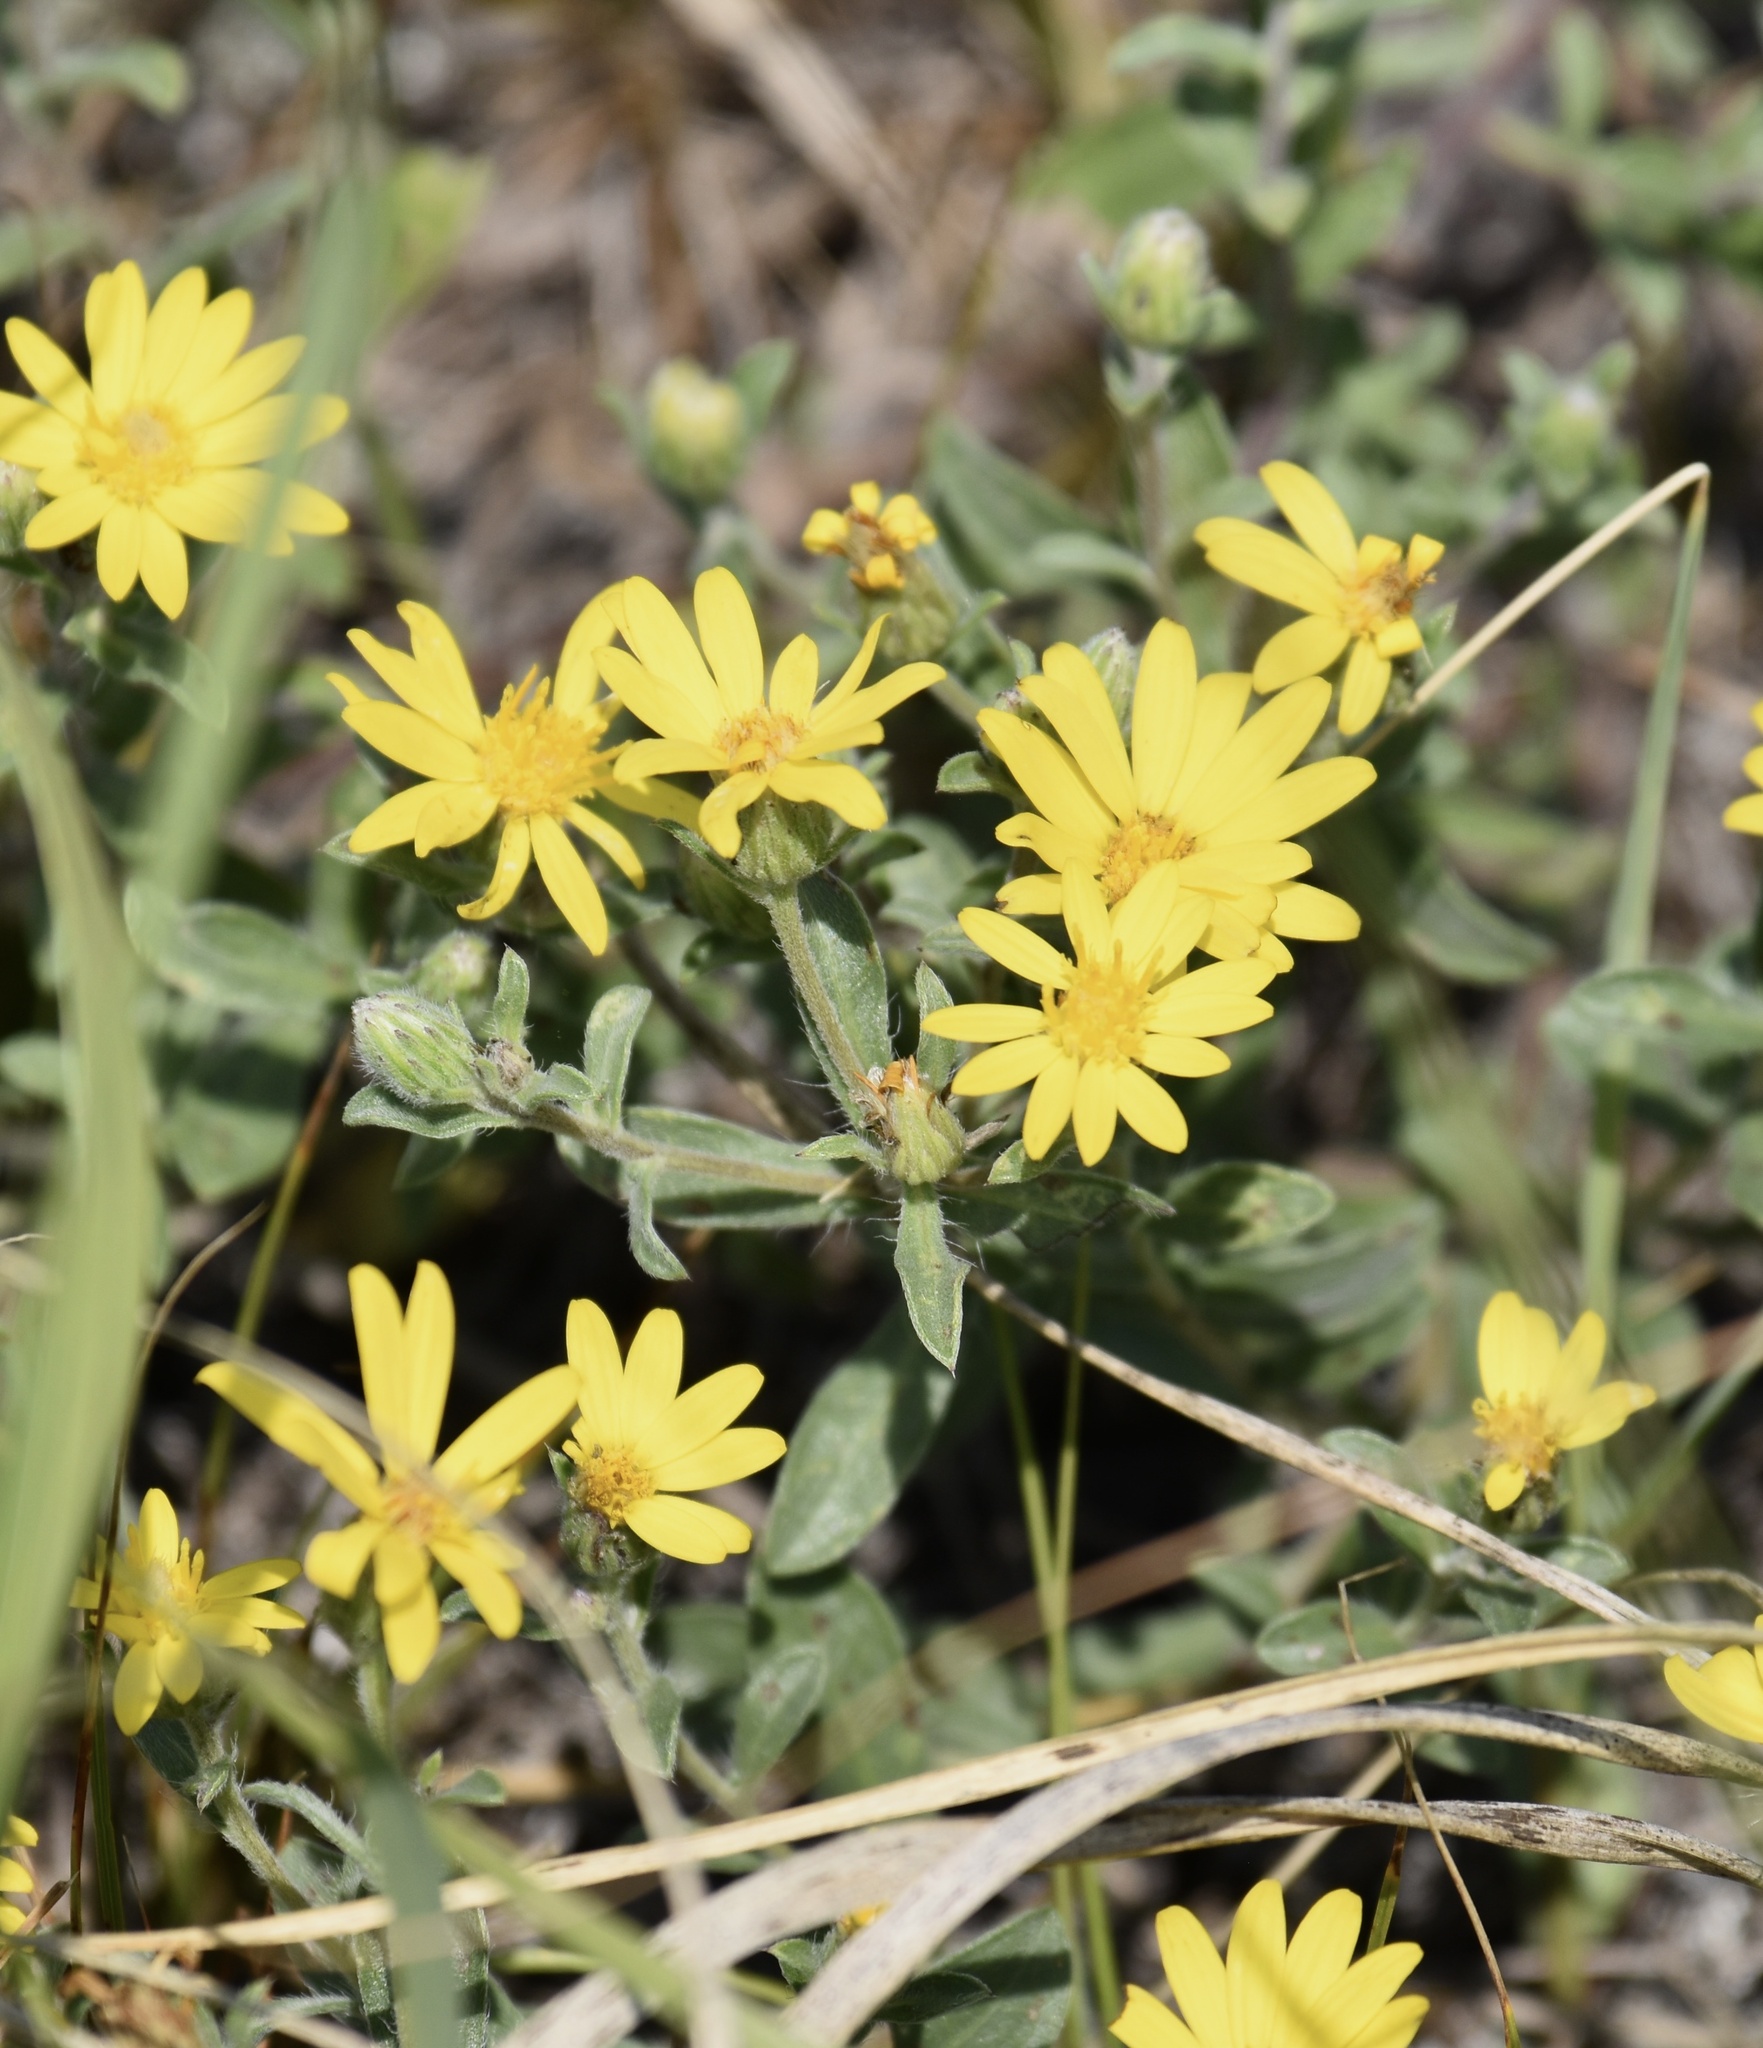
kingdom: Plantae
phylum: Tracheophyta
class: Magnoliopsida
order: Asterales
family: Asteraceae
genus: Heterotheca
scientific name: Heterotheca villosa
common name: Hairy false goldenaster
